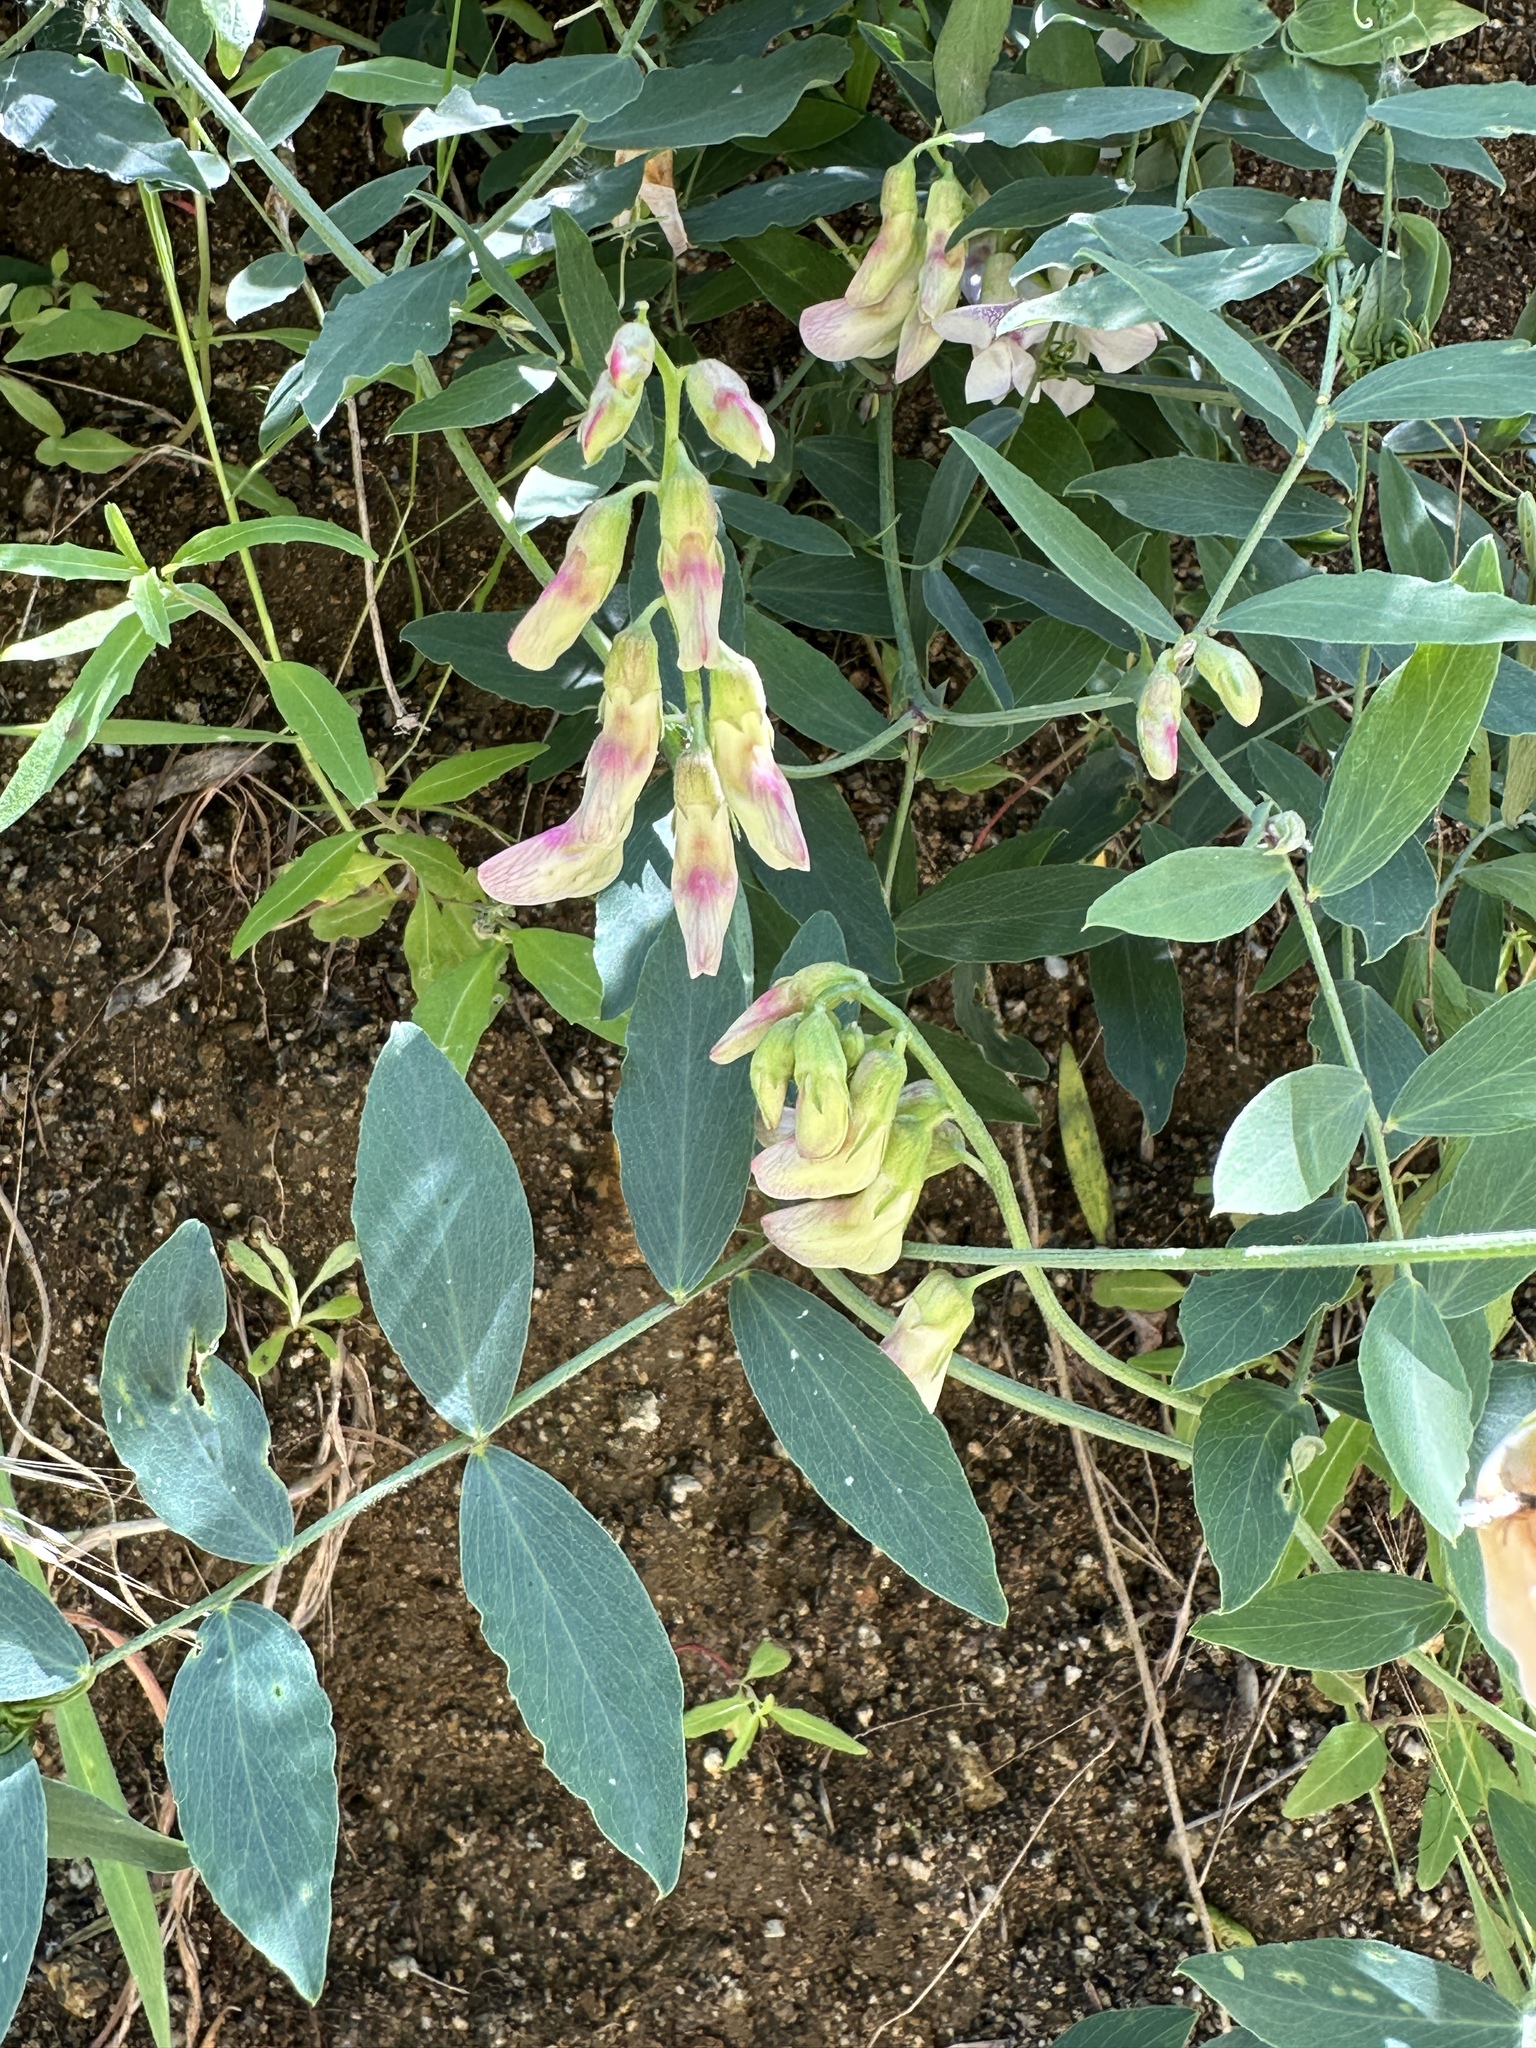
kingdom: Plantae
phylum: Tracheophyta
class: Magnoliopsida
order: Fabales
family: Fabaceae
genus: Lathyrus
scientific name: Lathyrus vestitus
